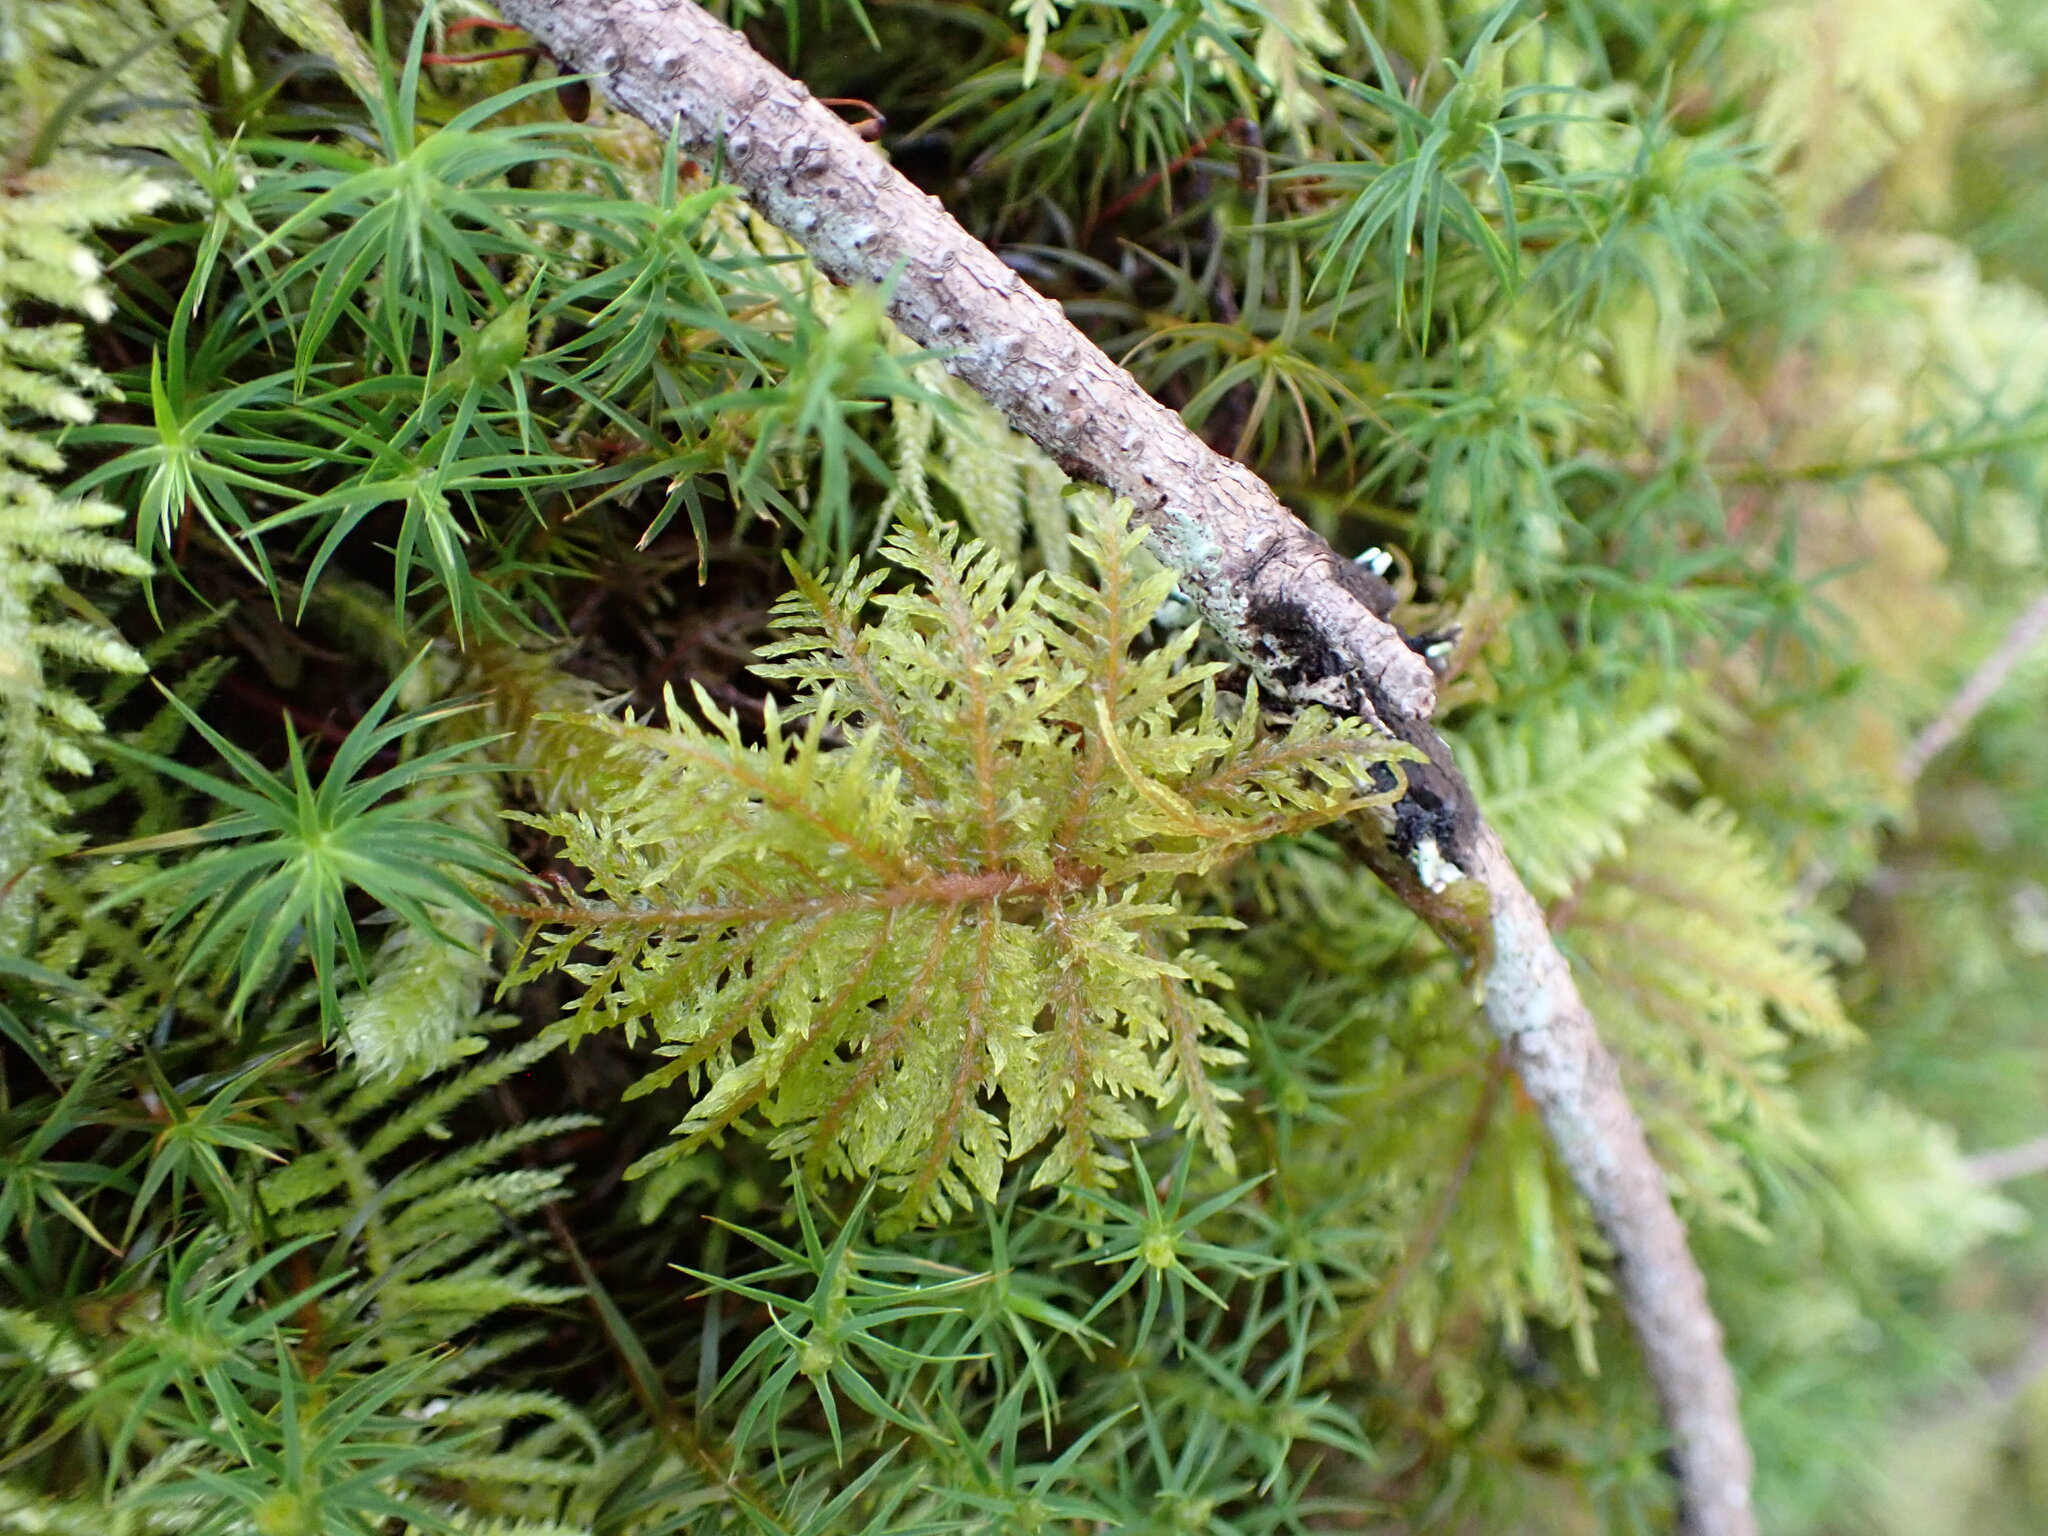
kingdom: Plantae
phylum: Bryophyta
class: Bryopsida
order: Hypnales
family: Hylocomiaceae
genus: Hylocomium
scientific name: Hylocomium splendens
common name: Stairstep moss
